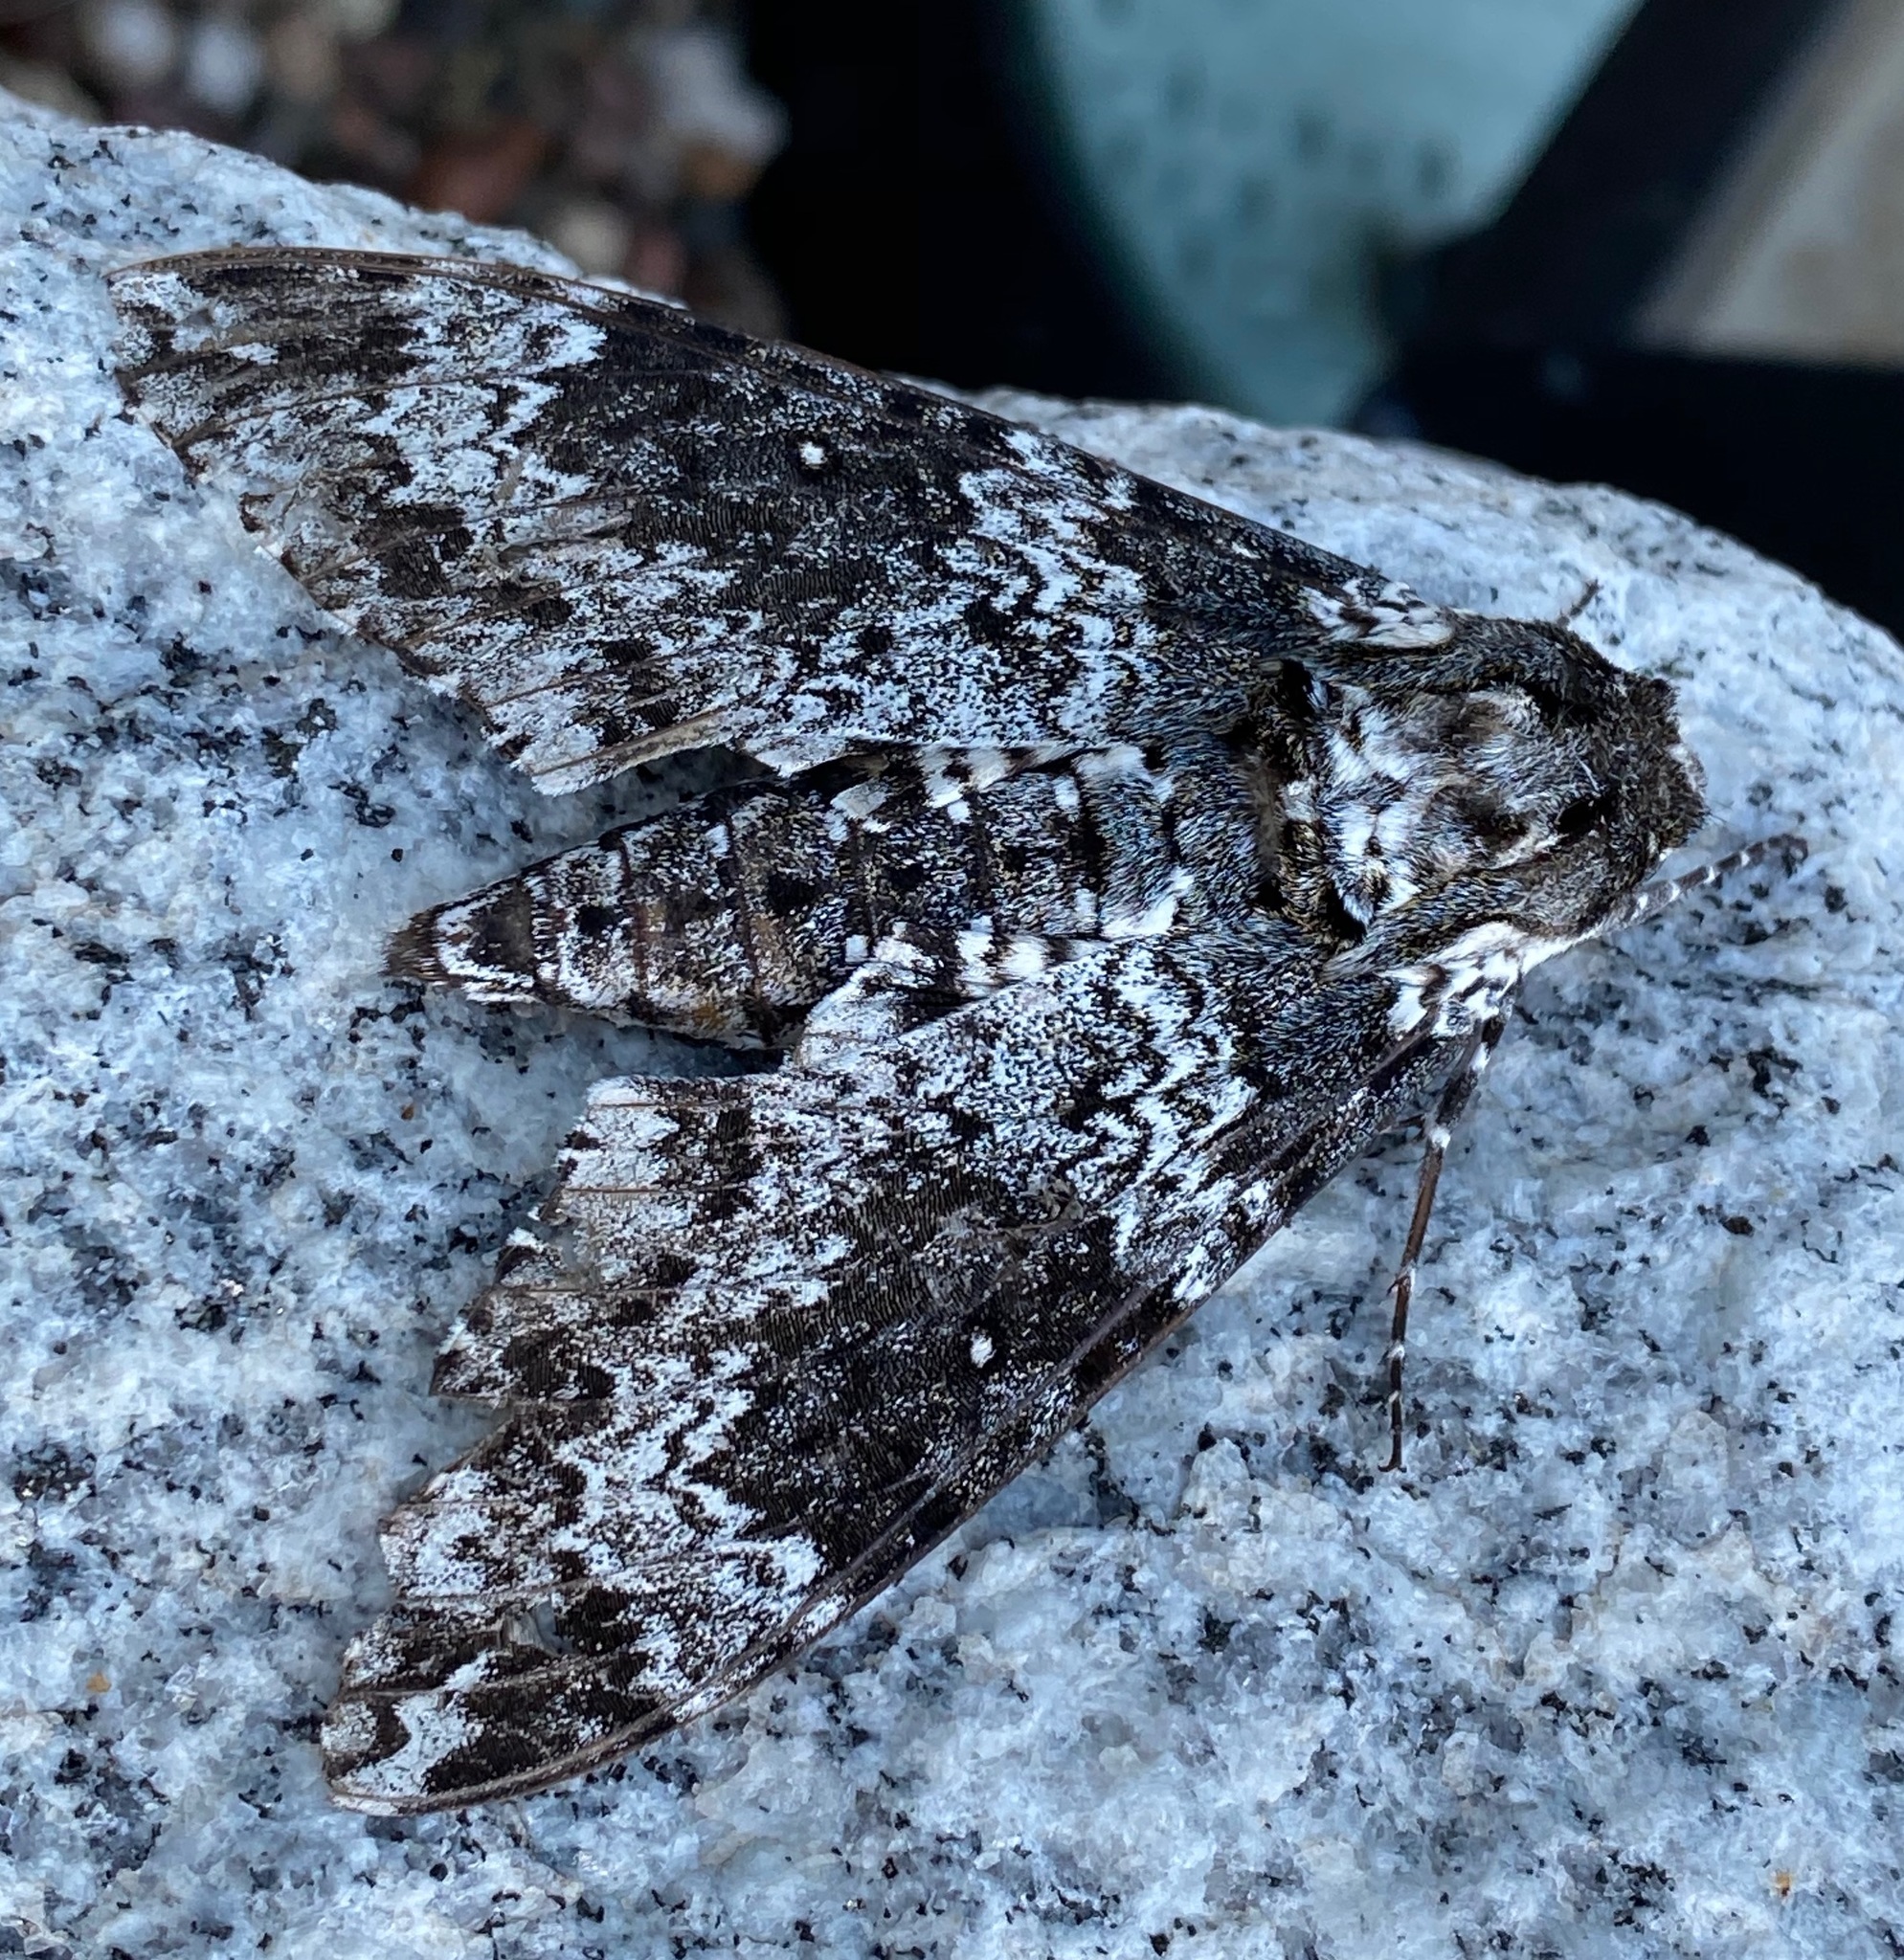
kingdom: Animalia
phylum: Arthropoda
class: Insecta
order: Lepidoptera
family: Sphingidae
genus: Manduca
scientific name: Manduca rustica
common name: Rustic sphinx
